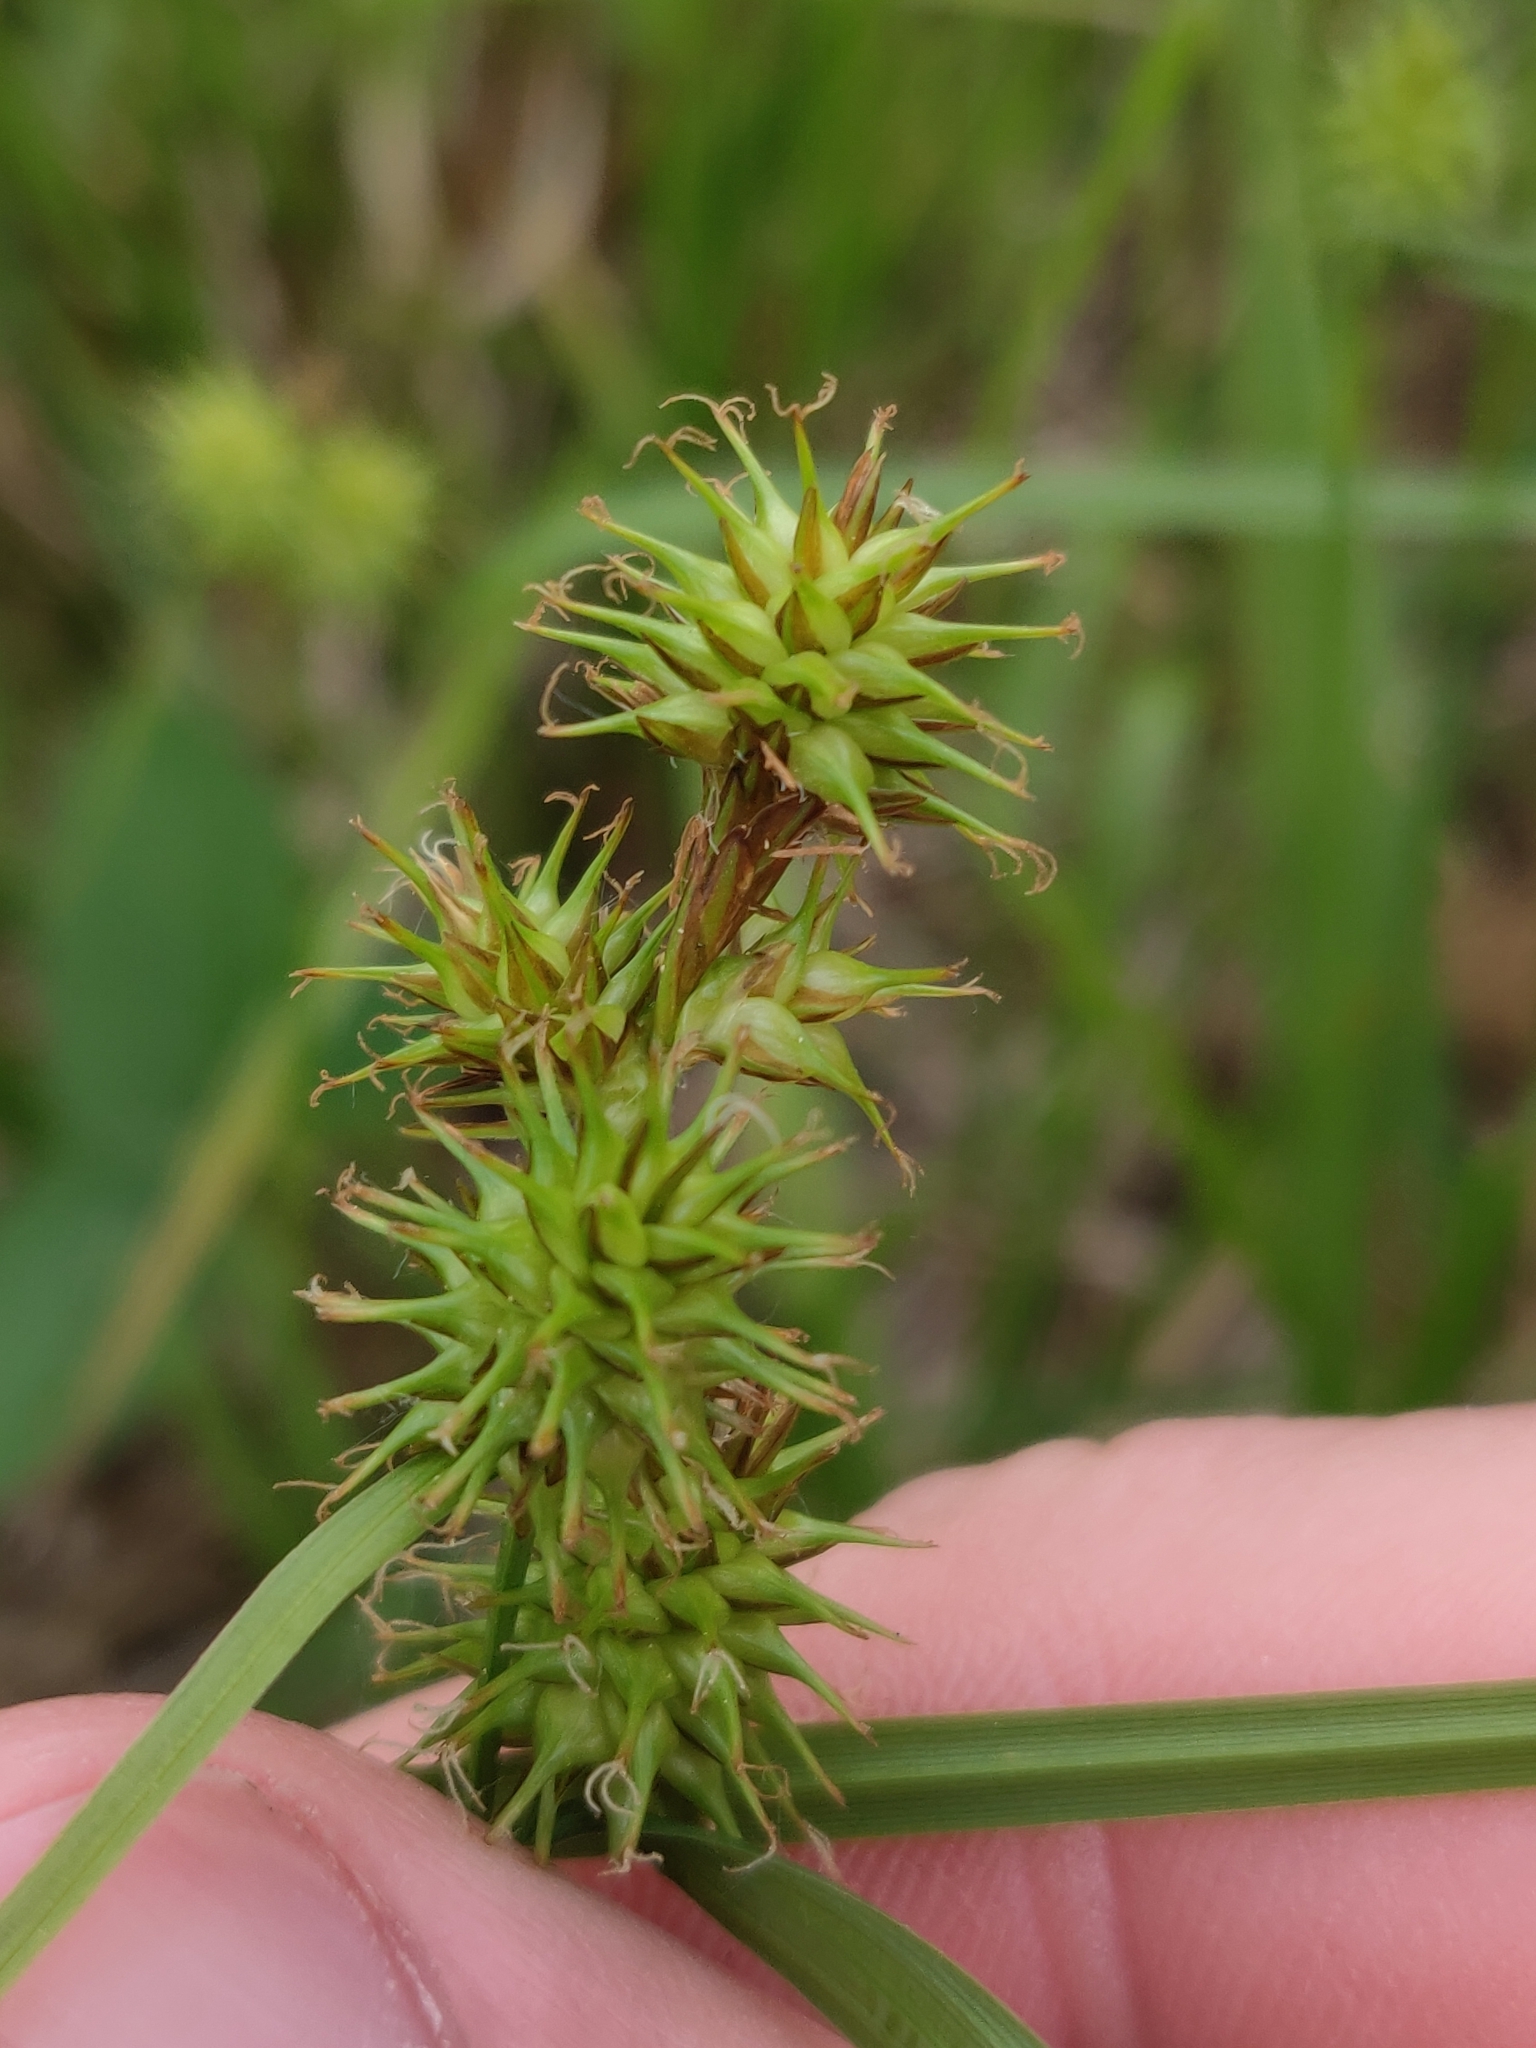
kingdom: Plantae
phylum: Tracheophyta
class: Liliopsida
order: Poales
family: Cyperaceae
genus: Carex
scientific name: Carex flava
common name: Large yellow-sedge
